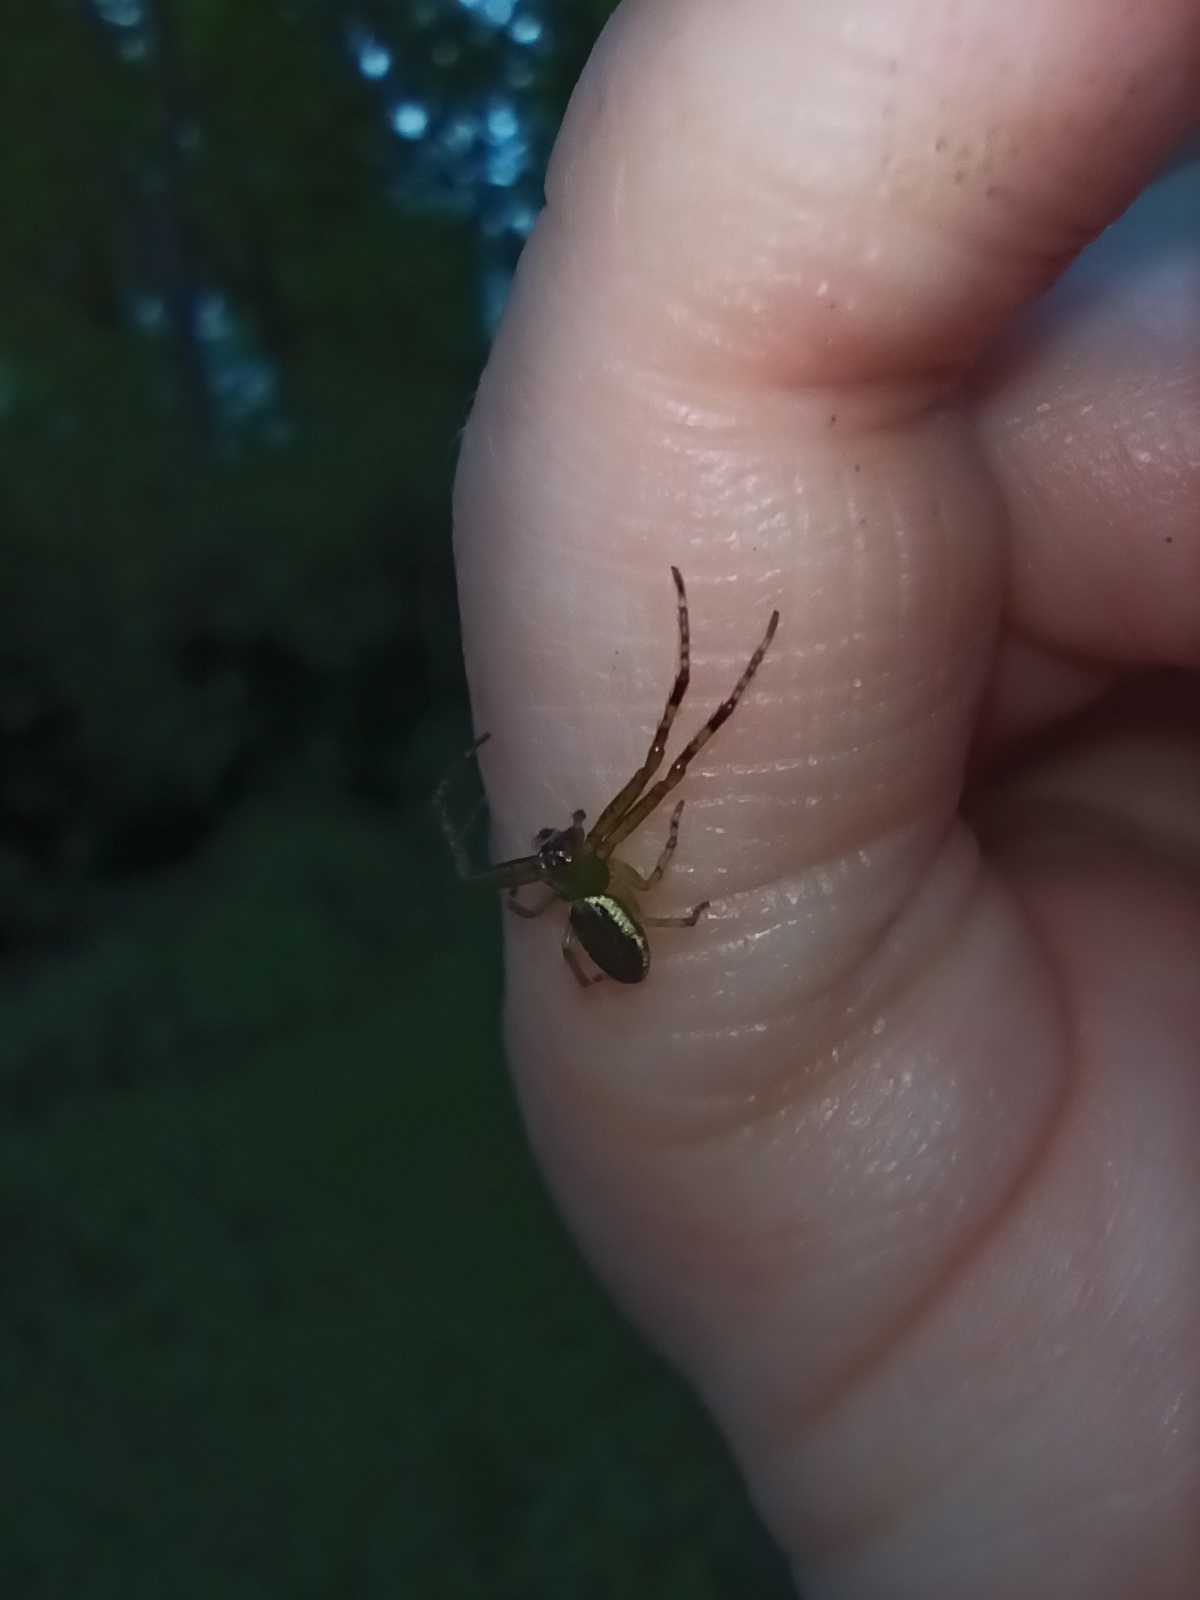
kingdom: Animalia
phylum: Arthropoda
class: Arachnida
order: Araneae
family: Thomisidae
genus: Diaea
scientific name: Diaea ambara
